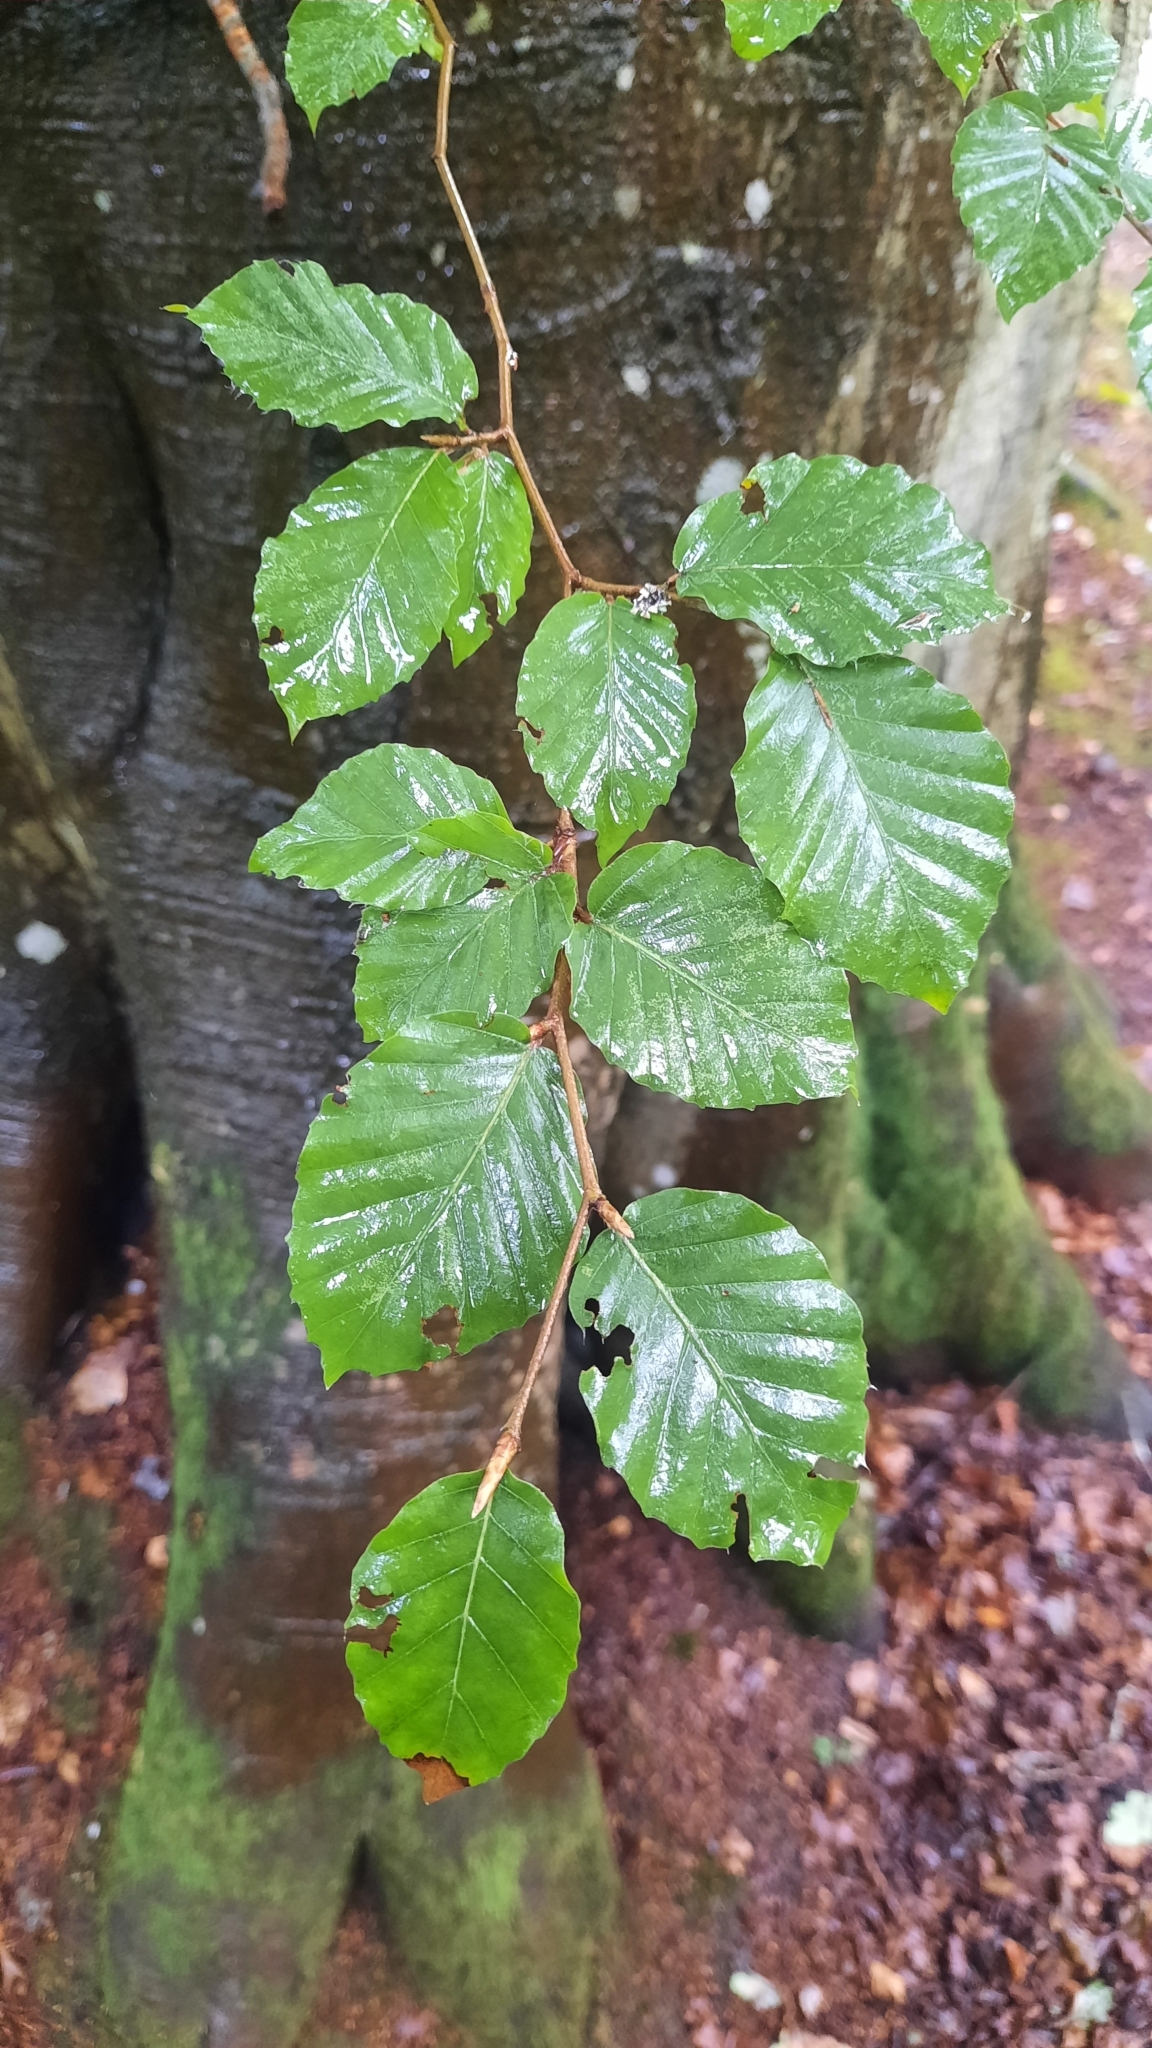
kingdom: Plantae
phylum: Tracheophyta
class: Magnoliopsida
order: Fagales
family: Fagaceae
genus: Fagus
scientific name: Fagus sylvatica
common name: Beech
